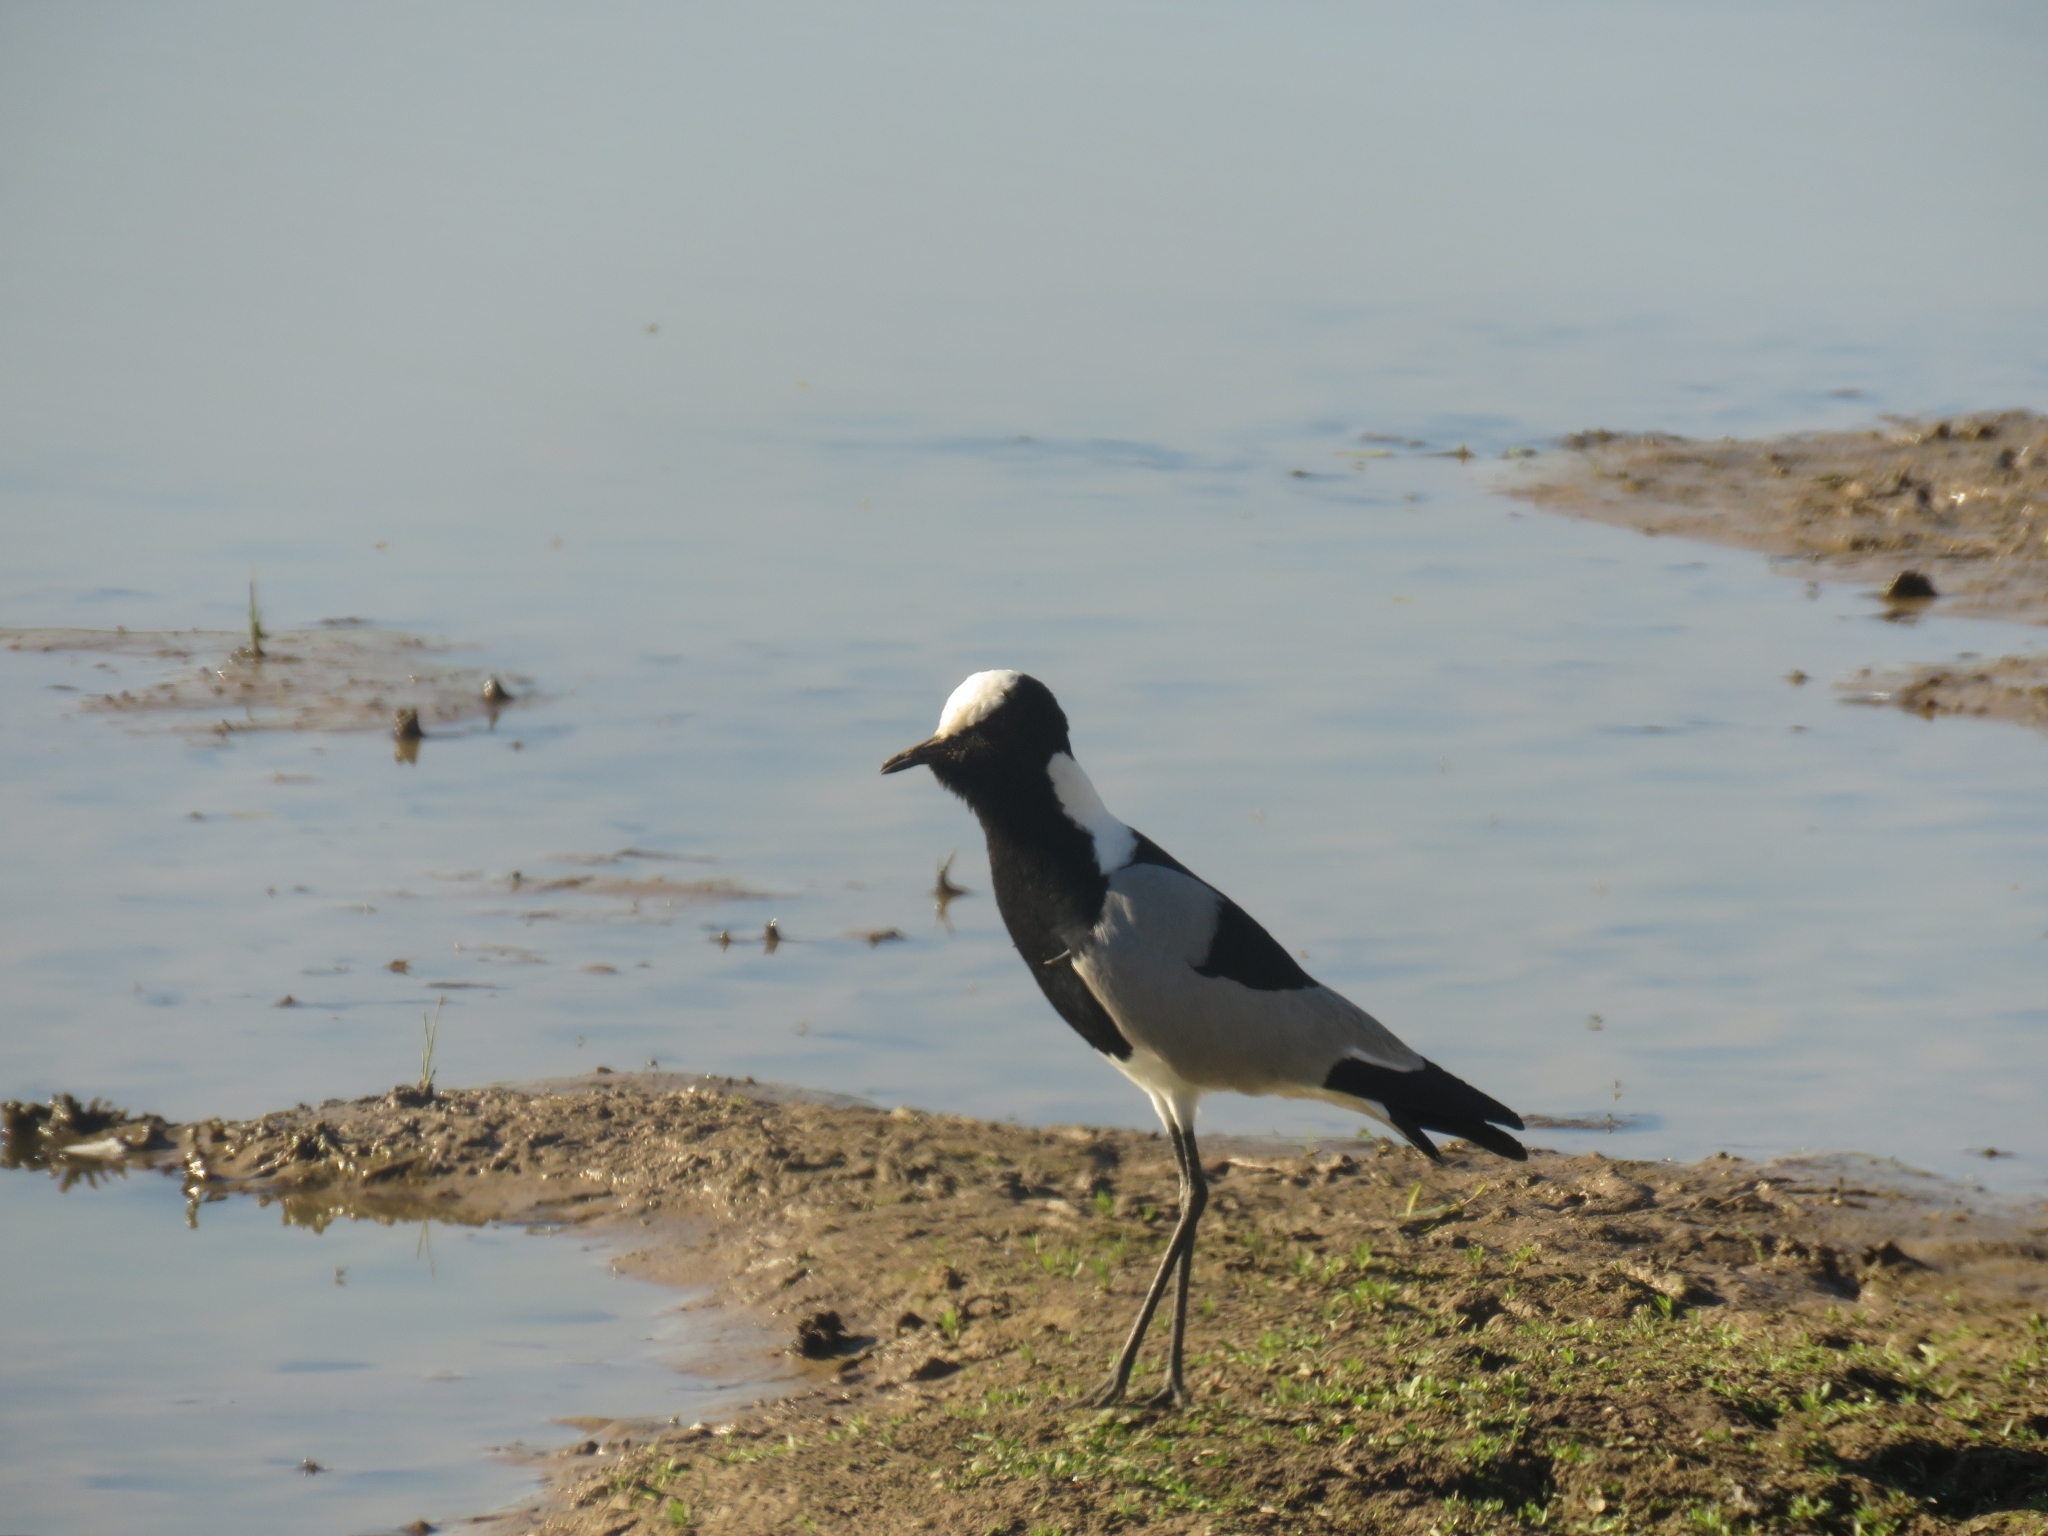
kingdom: Animalia
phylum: Chordata
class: Aves
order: Charadriiformes
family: Charadriidae
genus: Vanellus
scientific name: Vanellus armatus
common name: Blacksmith lapwing
